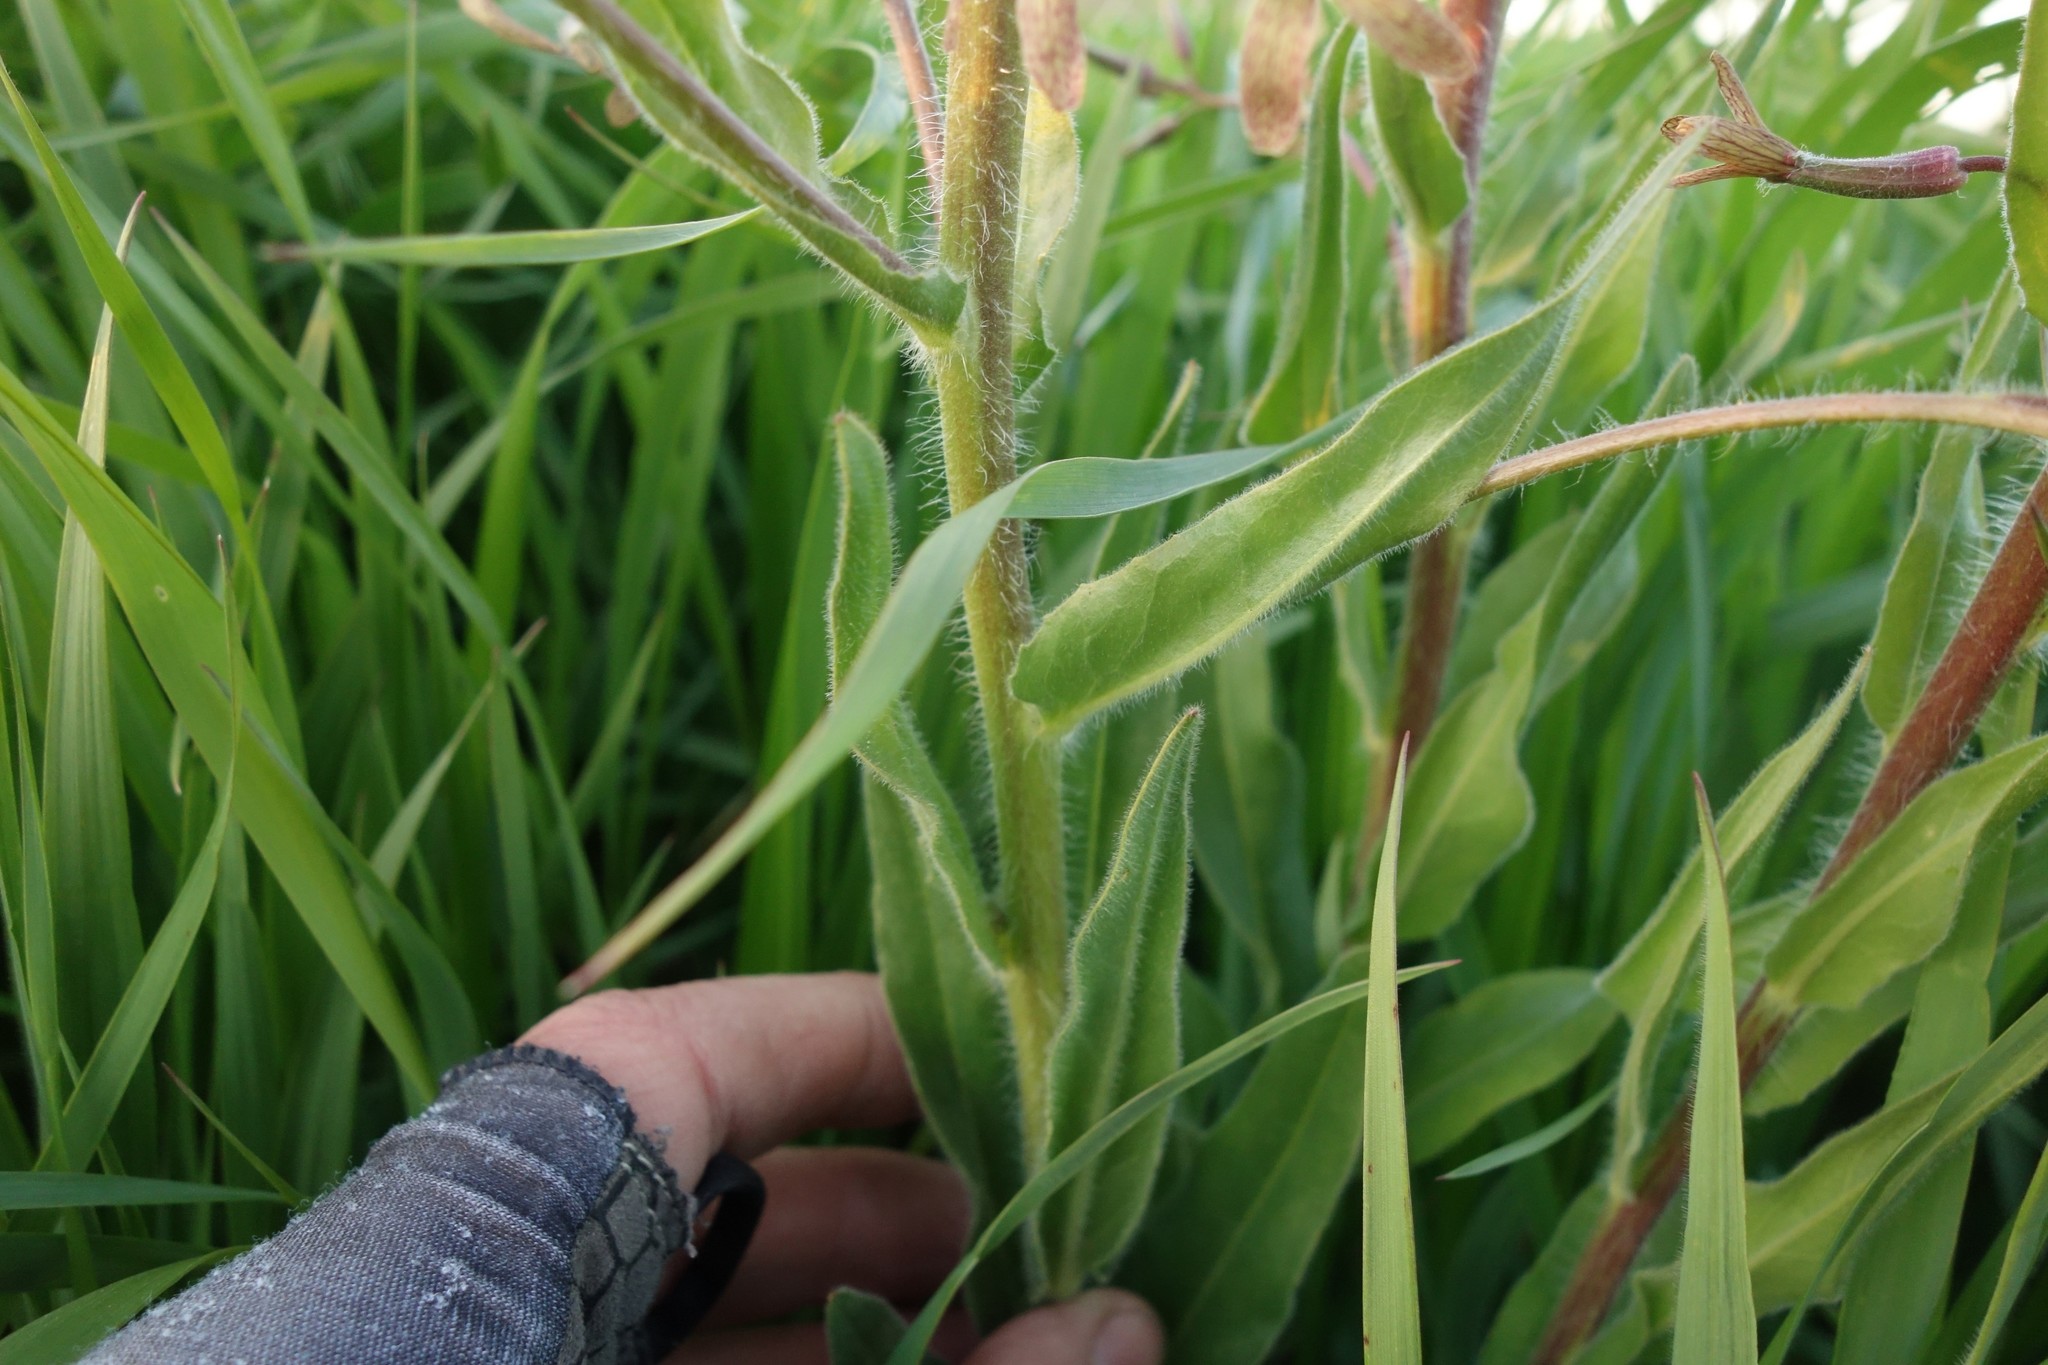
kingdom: Plantae
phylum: Tracheophyta
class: Magnoliopsida
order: Brassicales
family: Brassicaceae
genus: Hesperis
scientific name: Hesperis tristis
